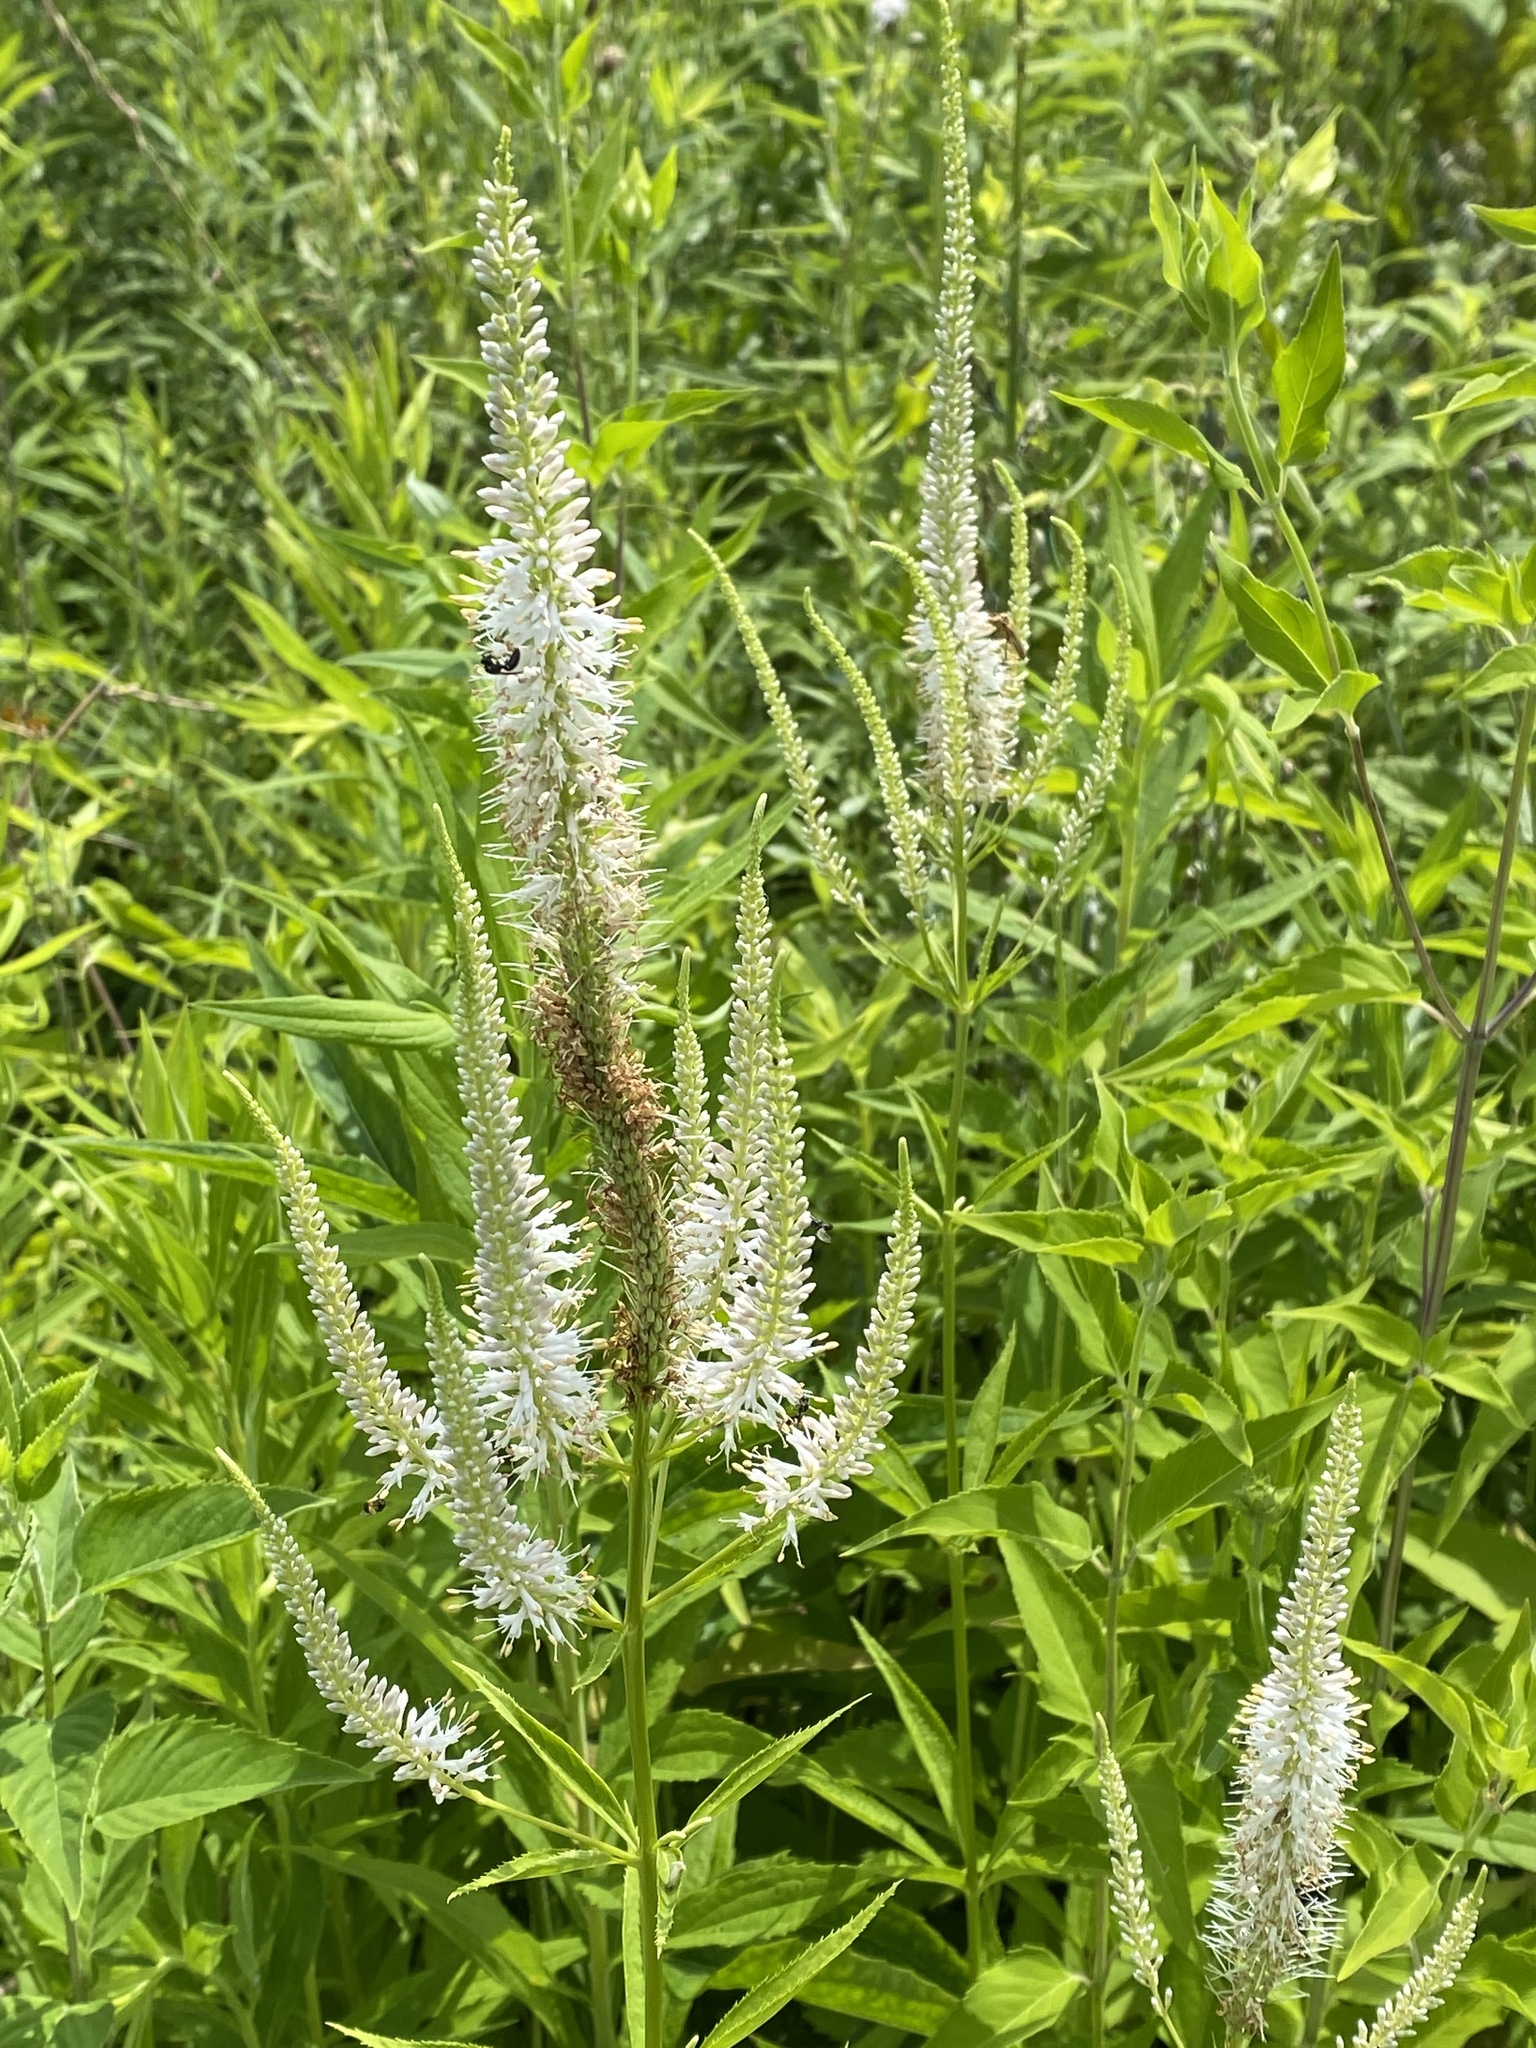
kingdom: Plantae
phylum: Tracheophyta
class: Magnoliopsida
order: Lamiales
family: Plantaginaceae
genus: Veronicastrum
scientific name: Veronicastrum virginicum
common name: Blackroot
